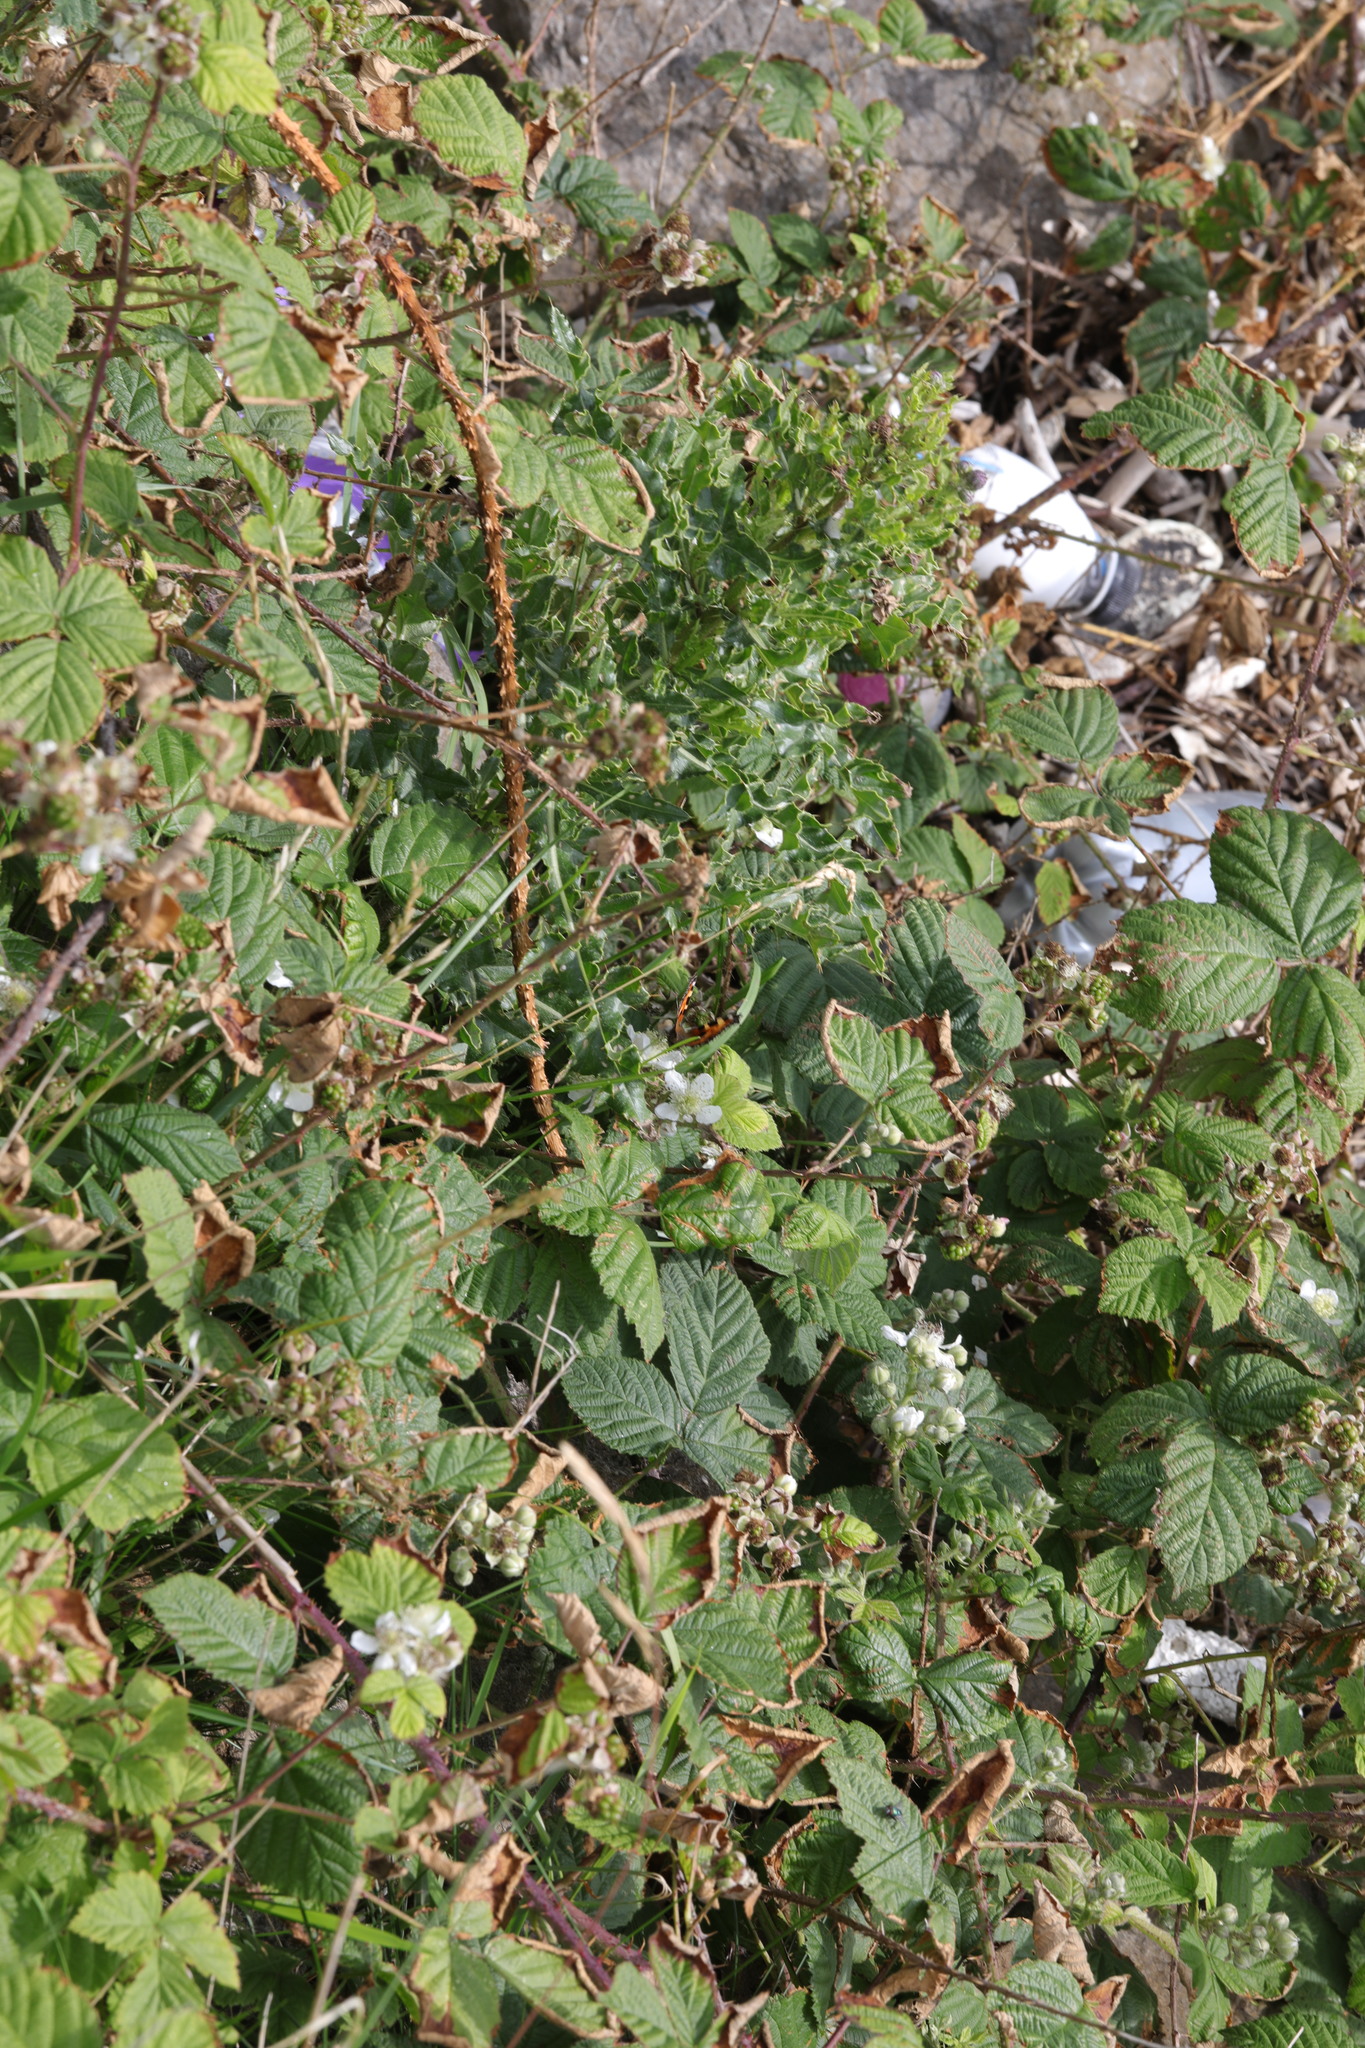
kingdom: Animalia
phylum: Arthropoda
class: Insecta
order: Lepidoptera
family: Nymphalidae
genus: Aglais
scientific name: Aglais urticae
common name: Small tortoiseshell
